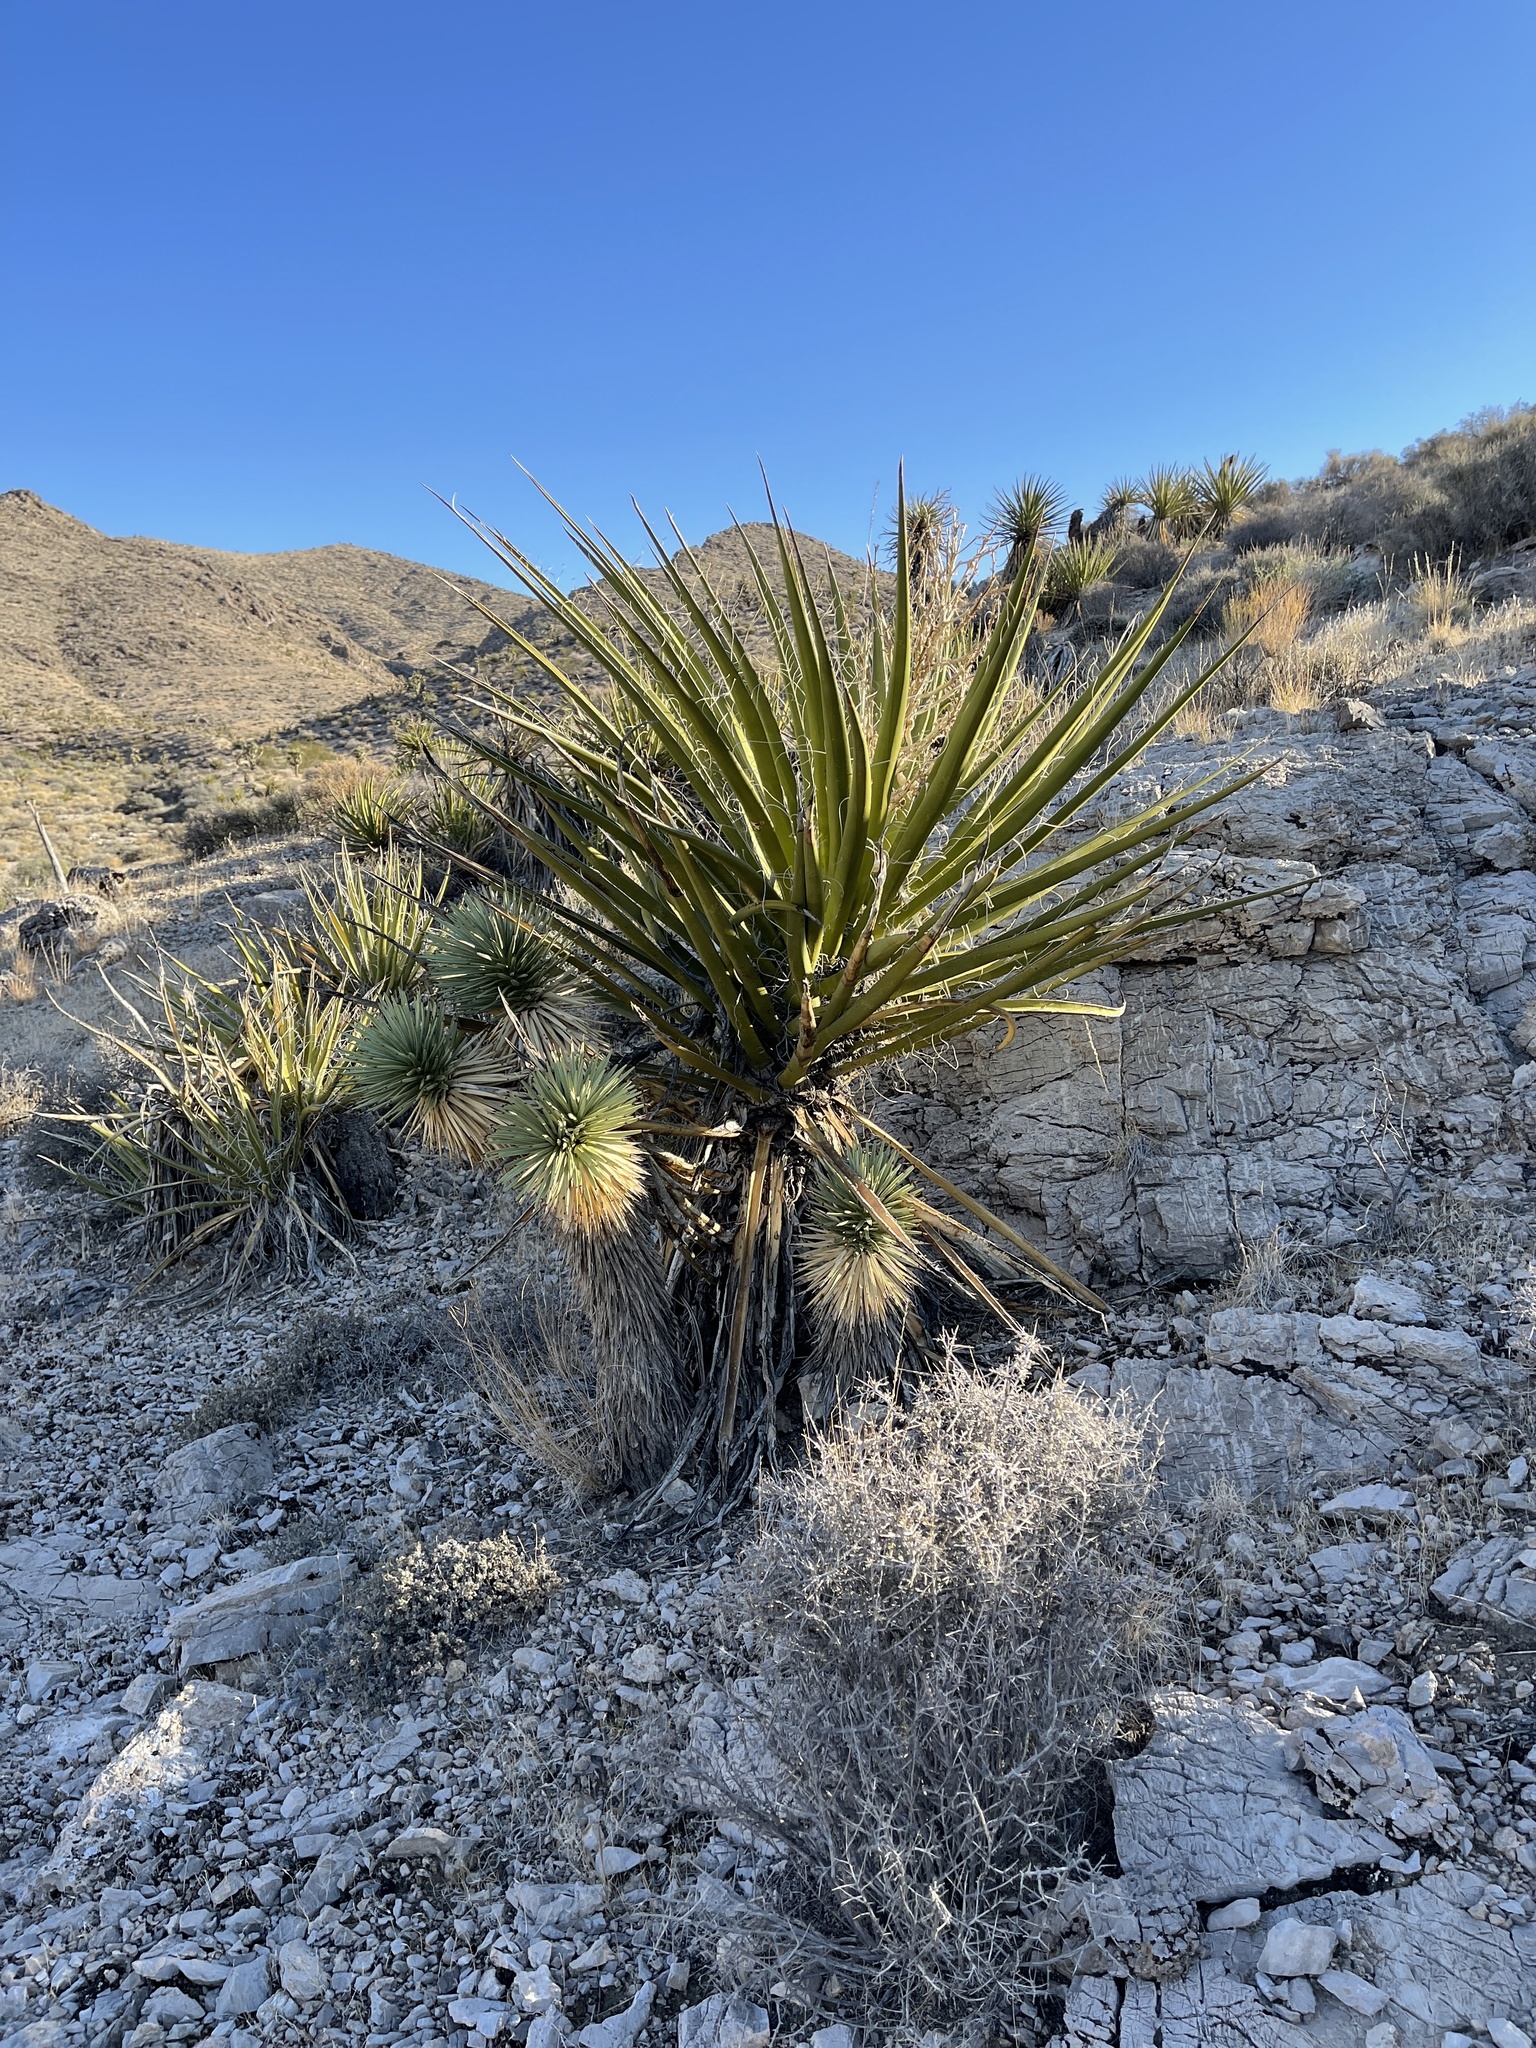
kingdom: Plantae
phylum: Tracheophyta
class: Liliopsida
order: Asparagales
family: Asparagaceae
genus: Yucca
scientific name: Yucca schidigera
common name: Mojave yucca
